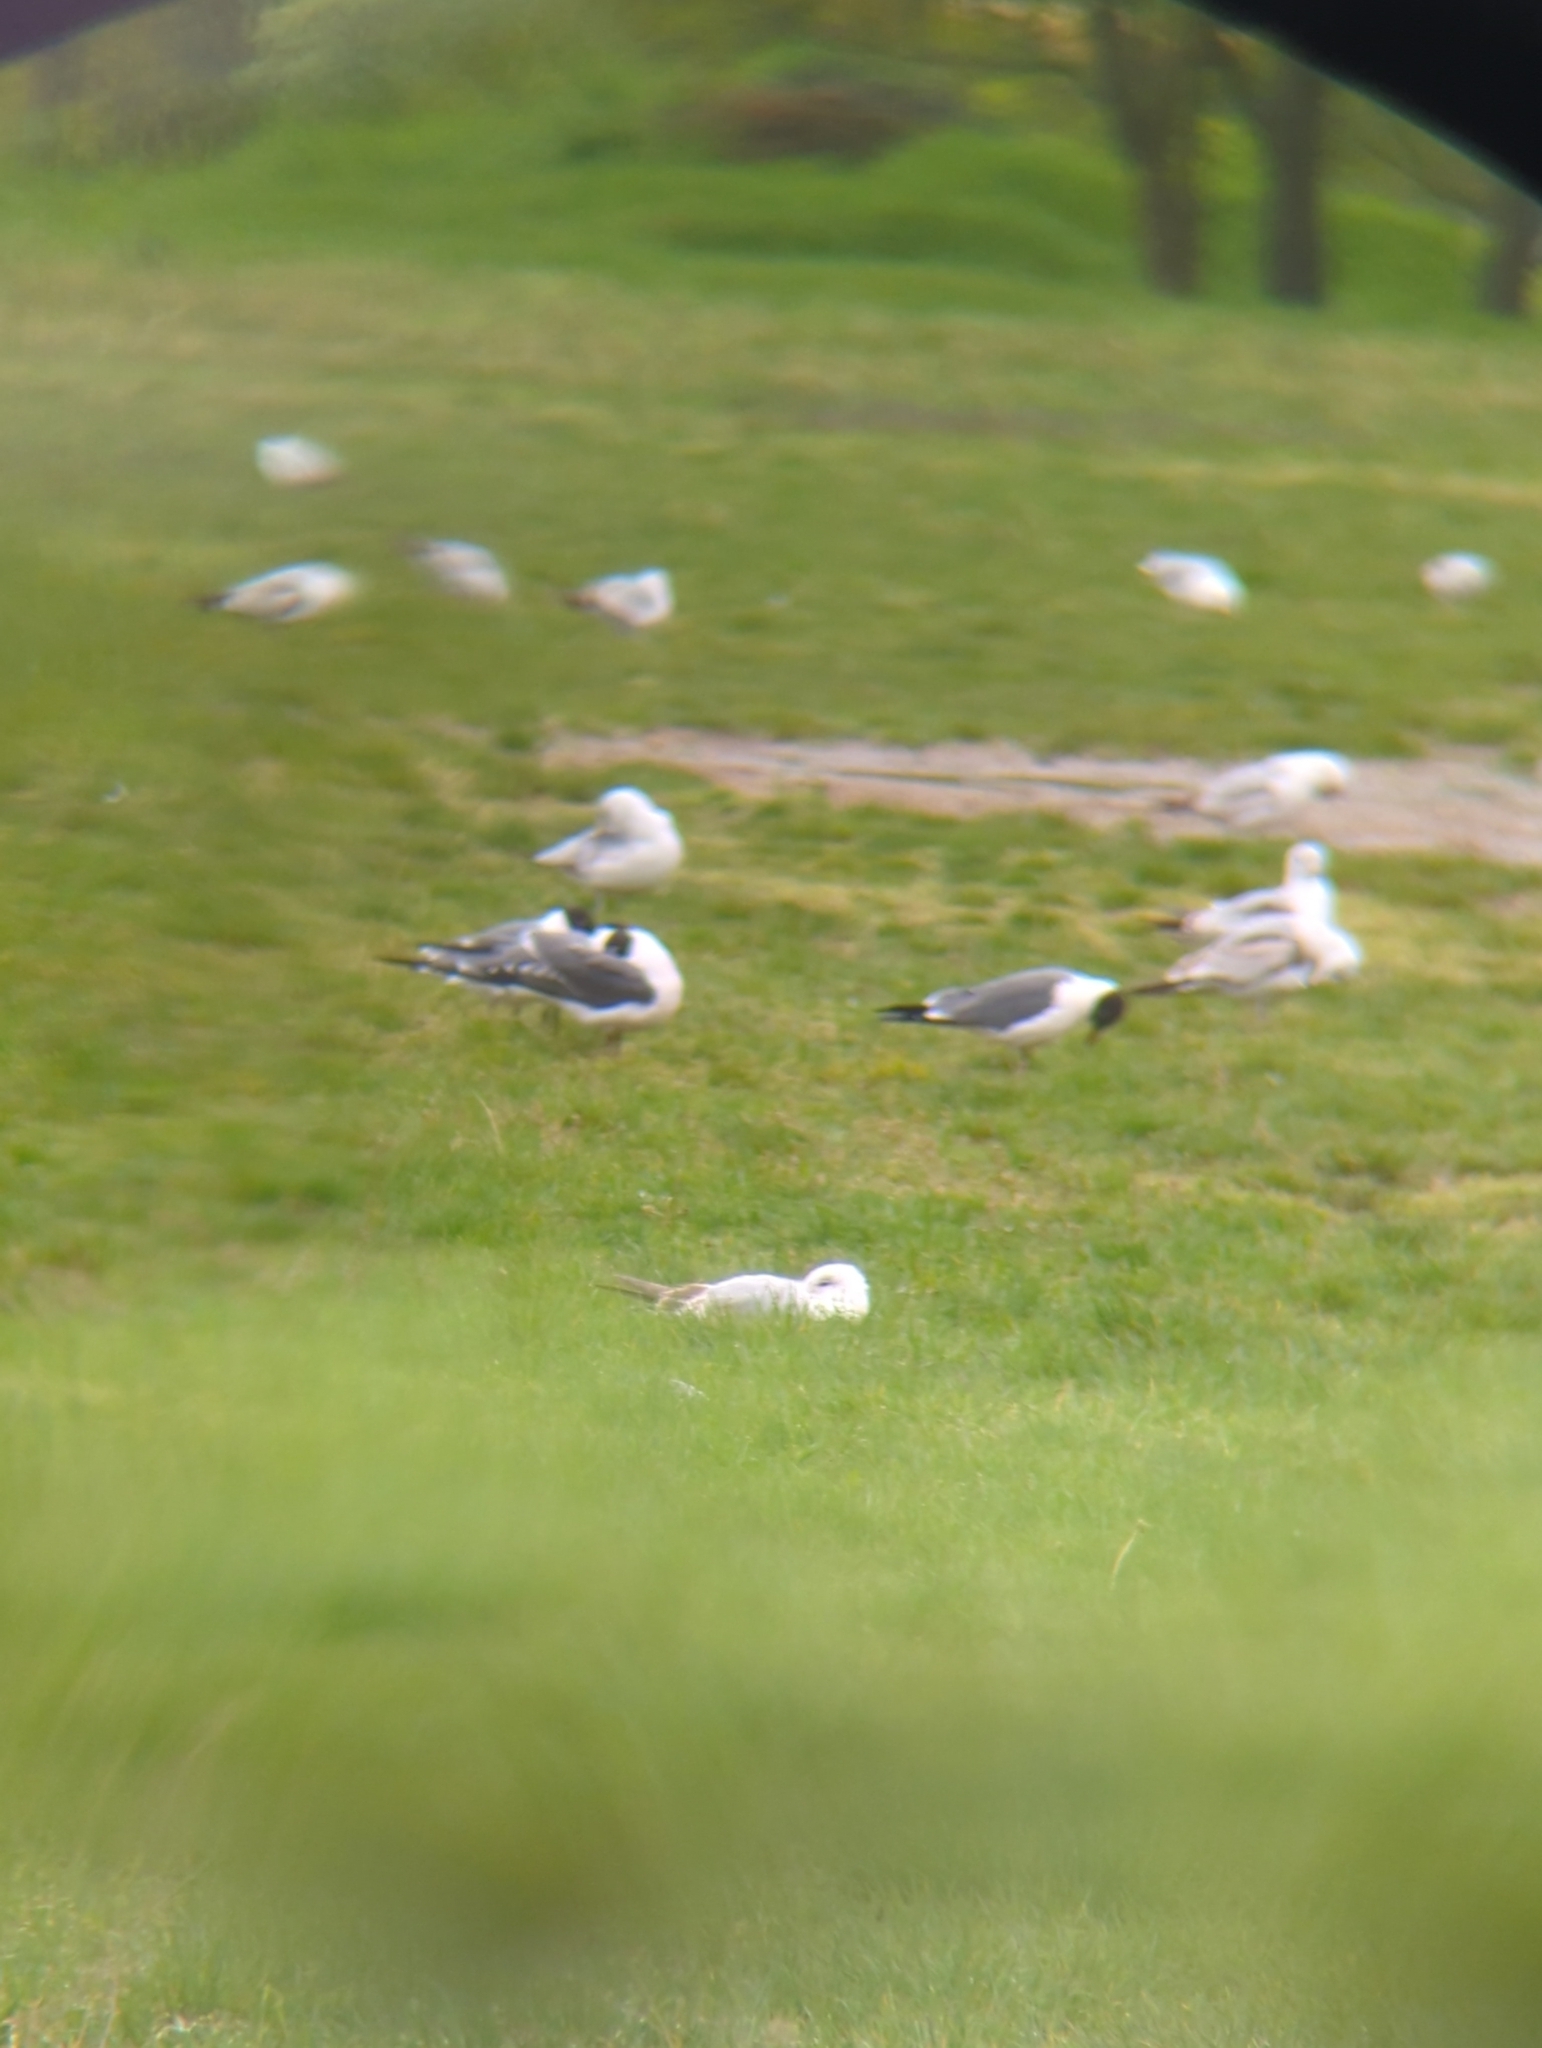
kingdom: Animalia
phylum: Chordata
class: Aves
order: Charadriiformes
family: Laridae
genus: Leucophaeus
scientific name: Leucophaeus atricilla
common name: Laughing gull
